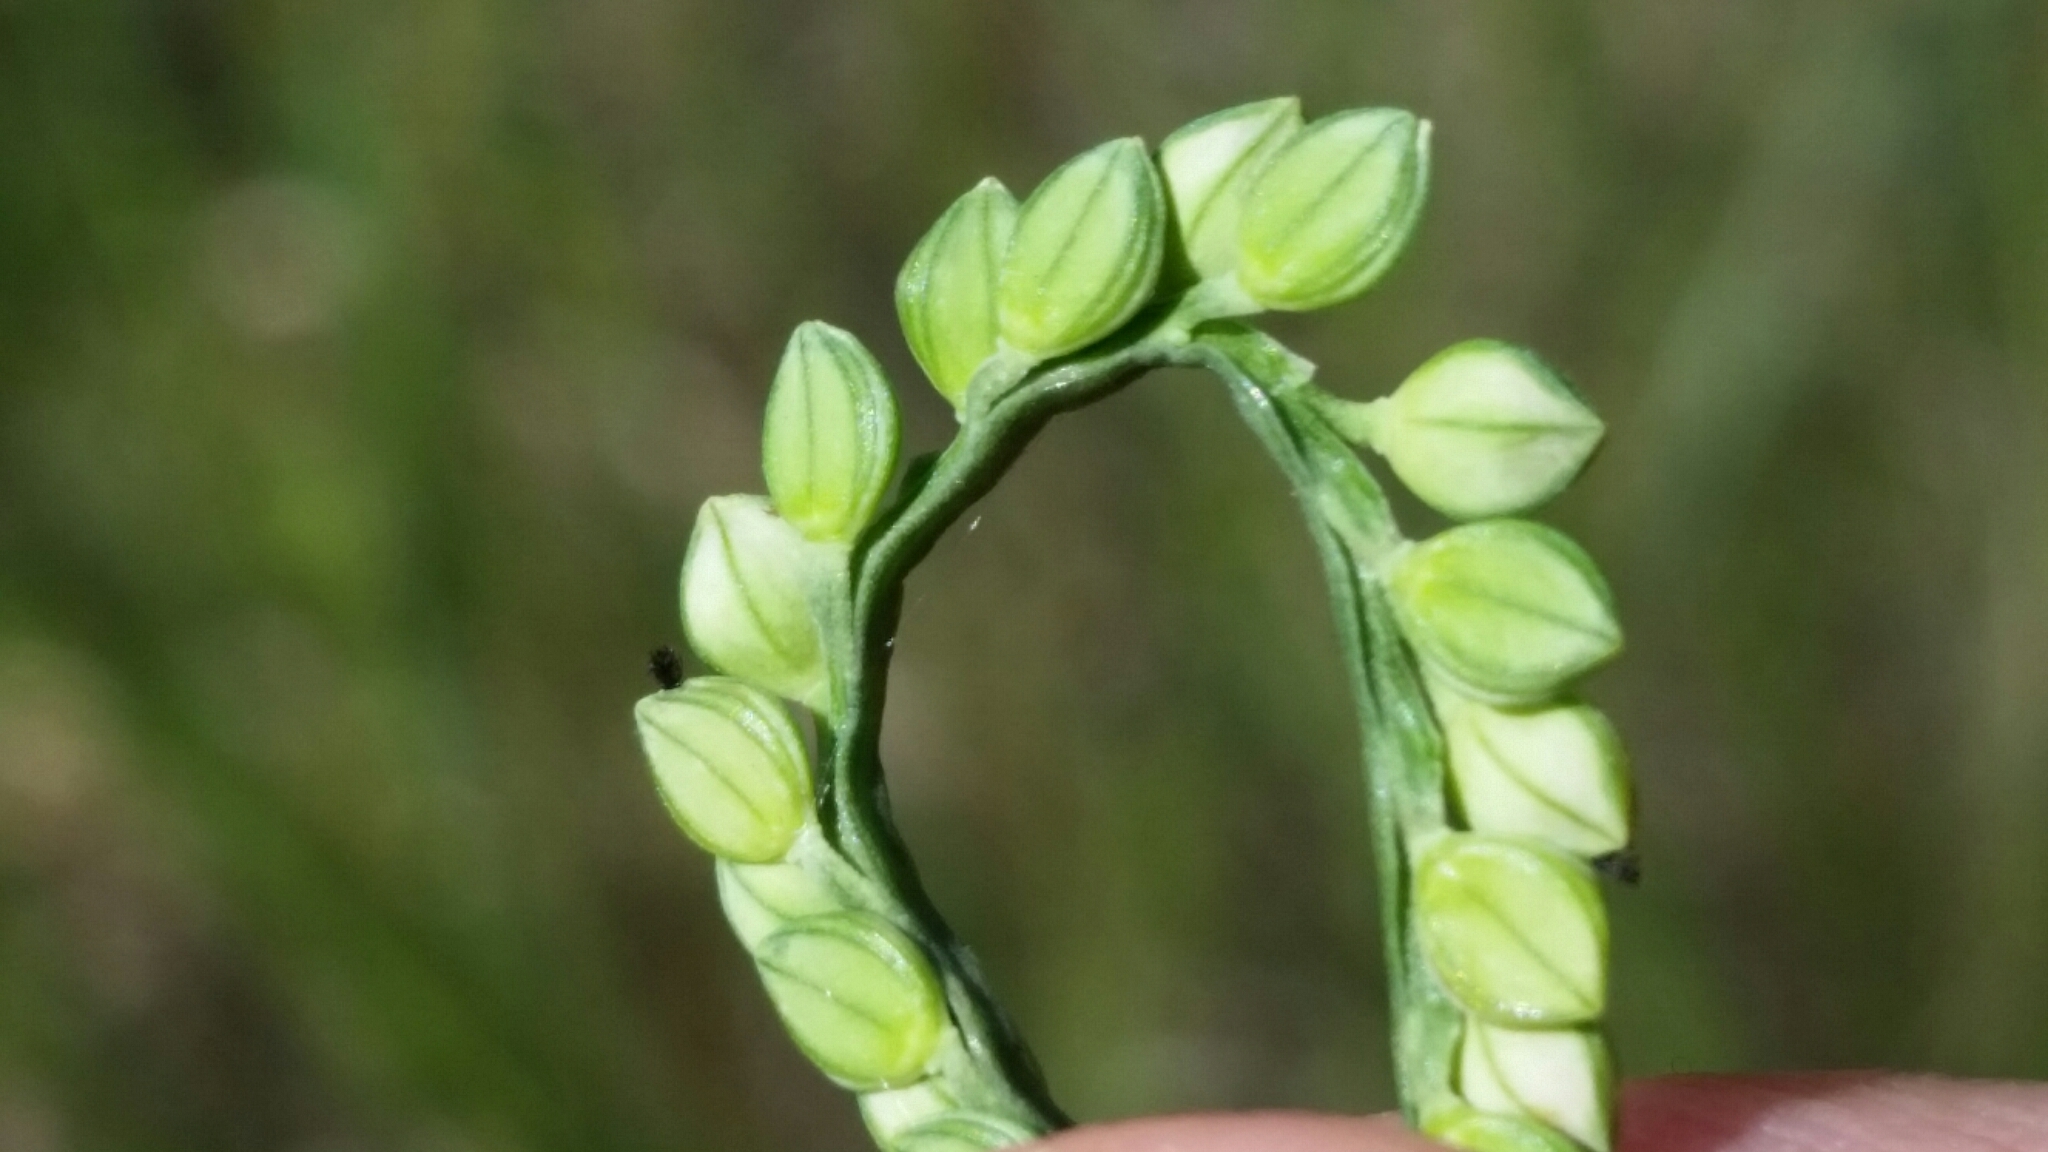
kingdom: Plantae
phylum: Tracheophyta
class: Liliopsida
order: Poales
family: Poaceae
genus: Paspalum
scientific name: Paspalum laeve
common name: Field paspalum
